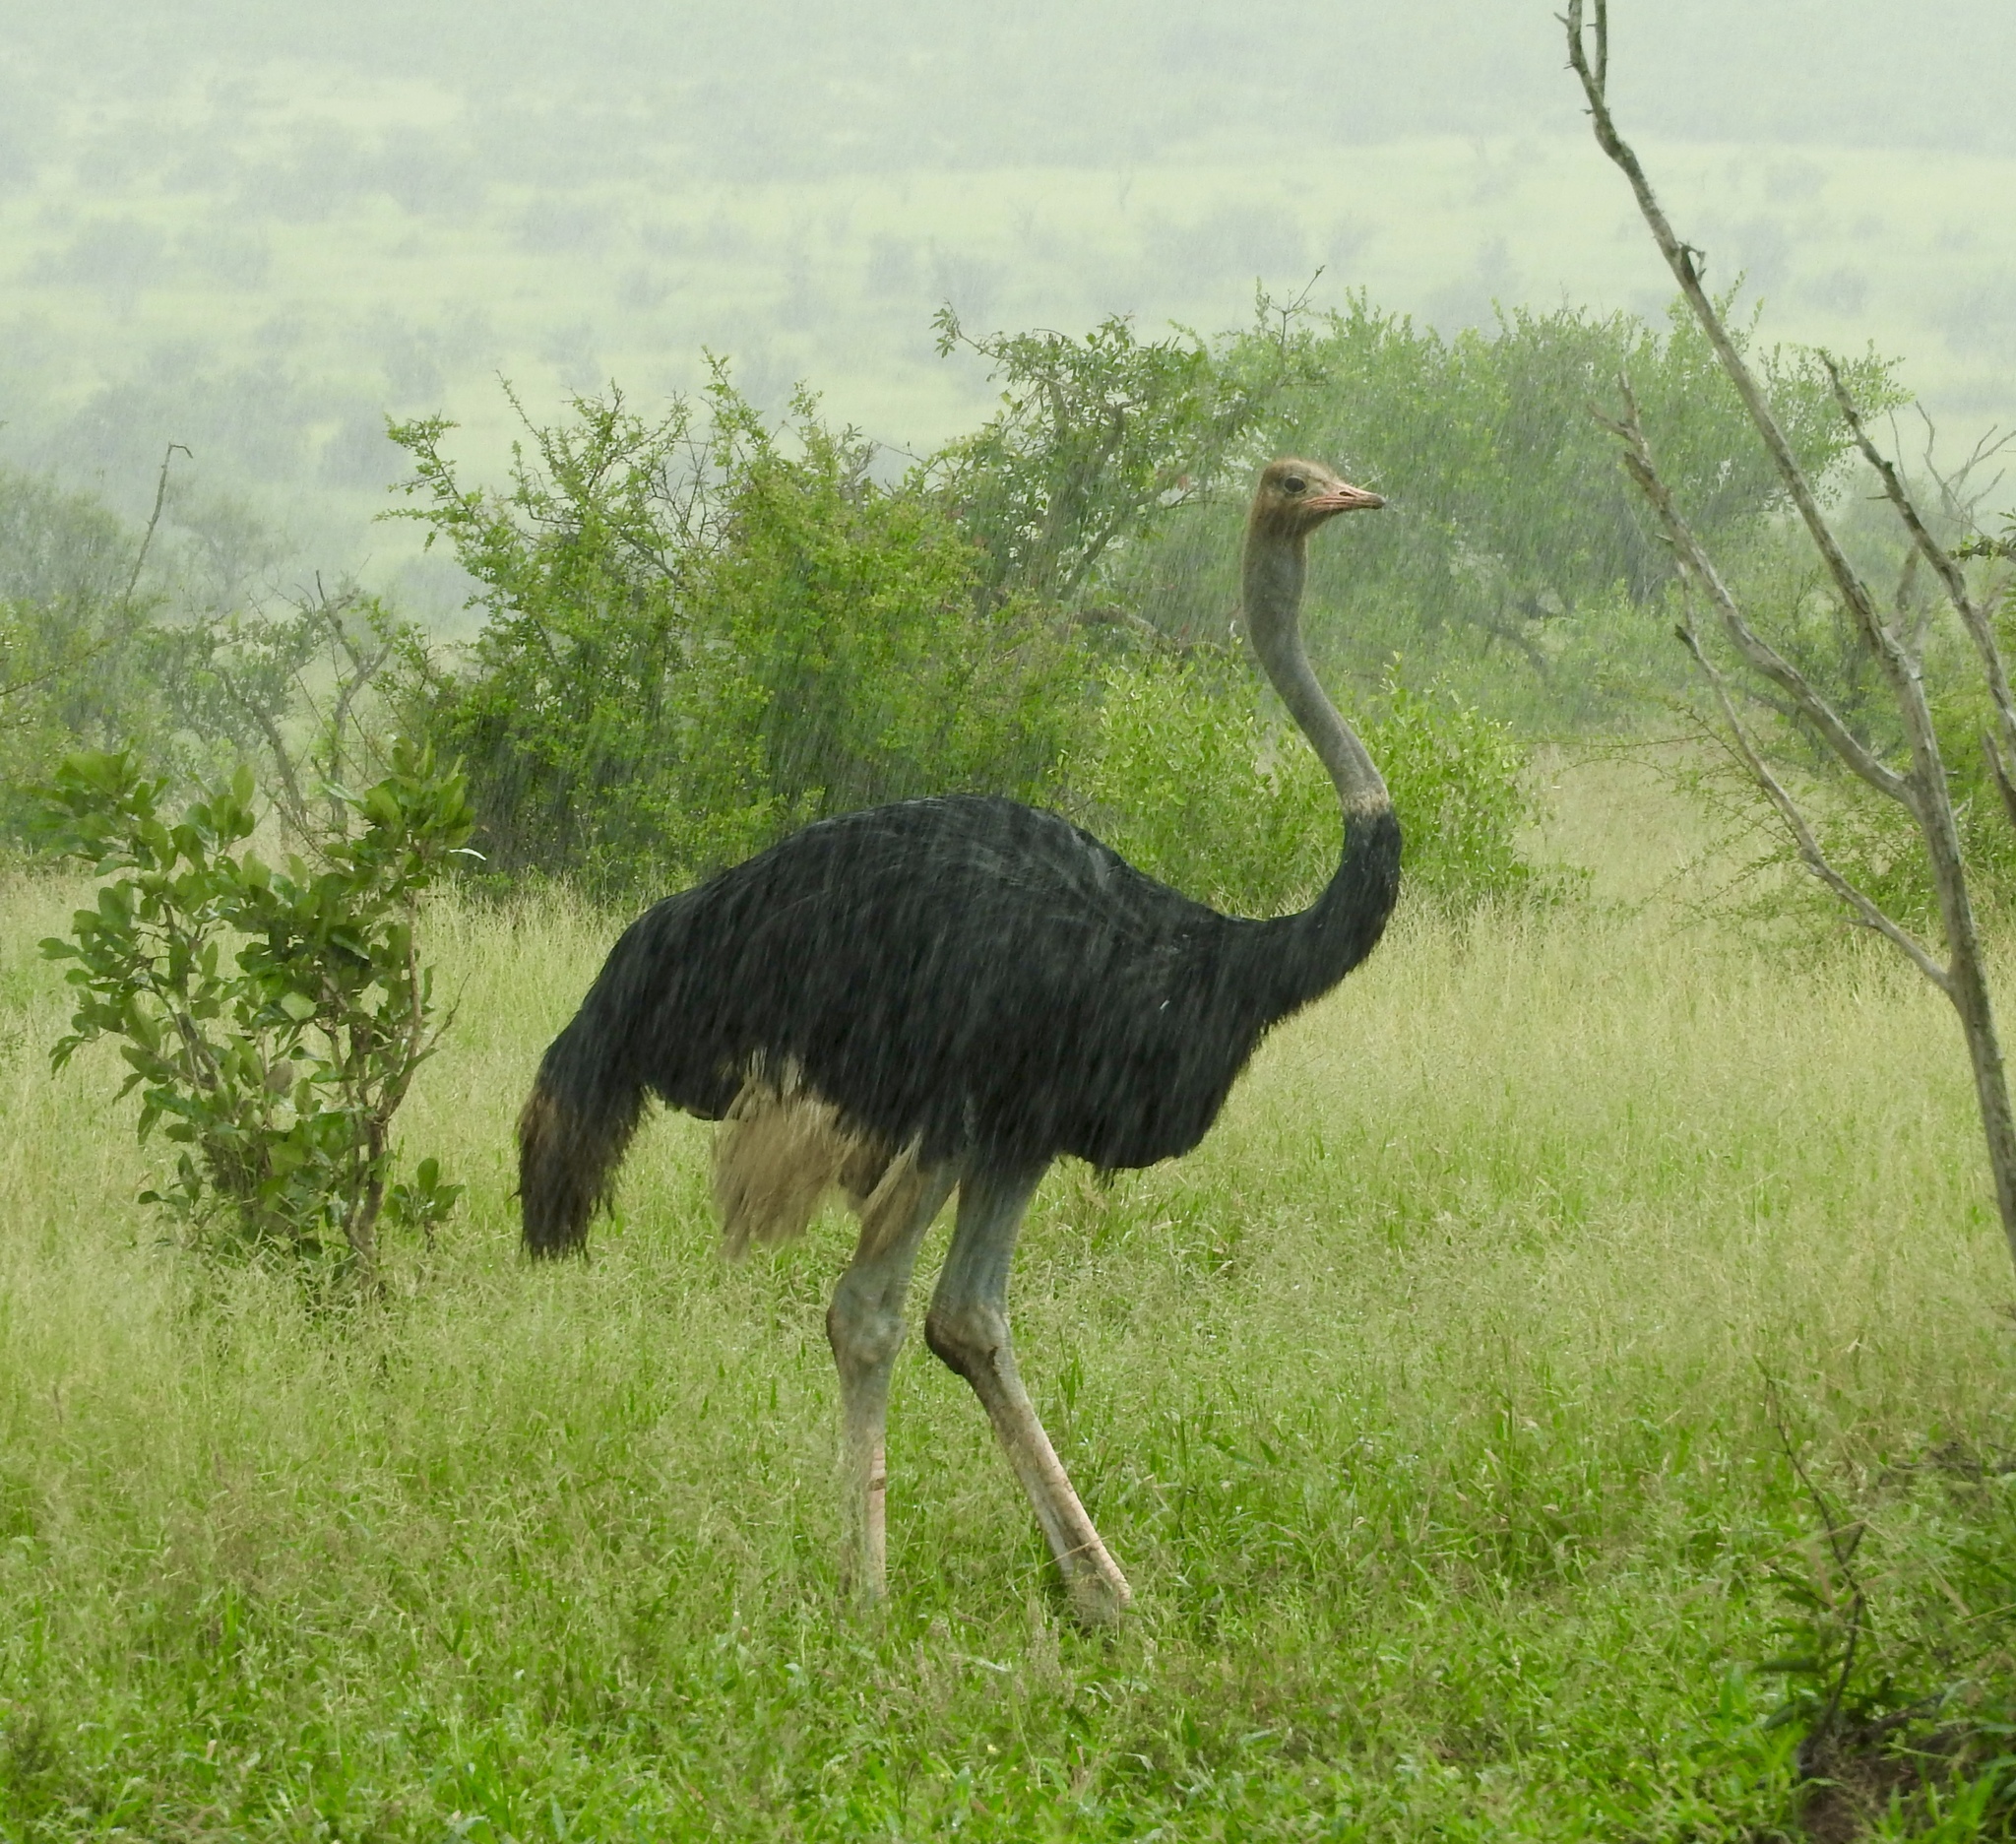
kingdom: Animalia
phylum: Chordata
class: Aves
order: Struthioniformes
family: Struthionidae
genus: Struthio
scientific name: Struthio camelus
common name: Common ostrich
